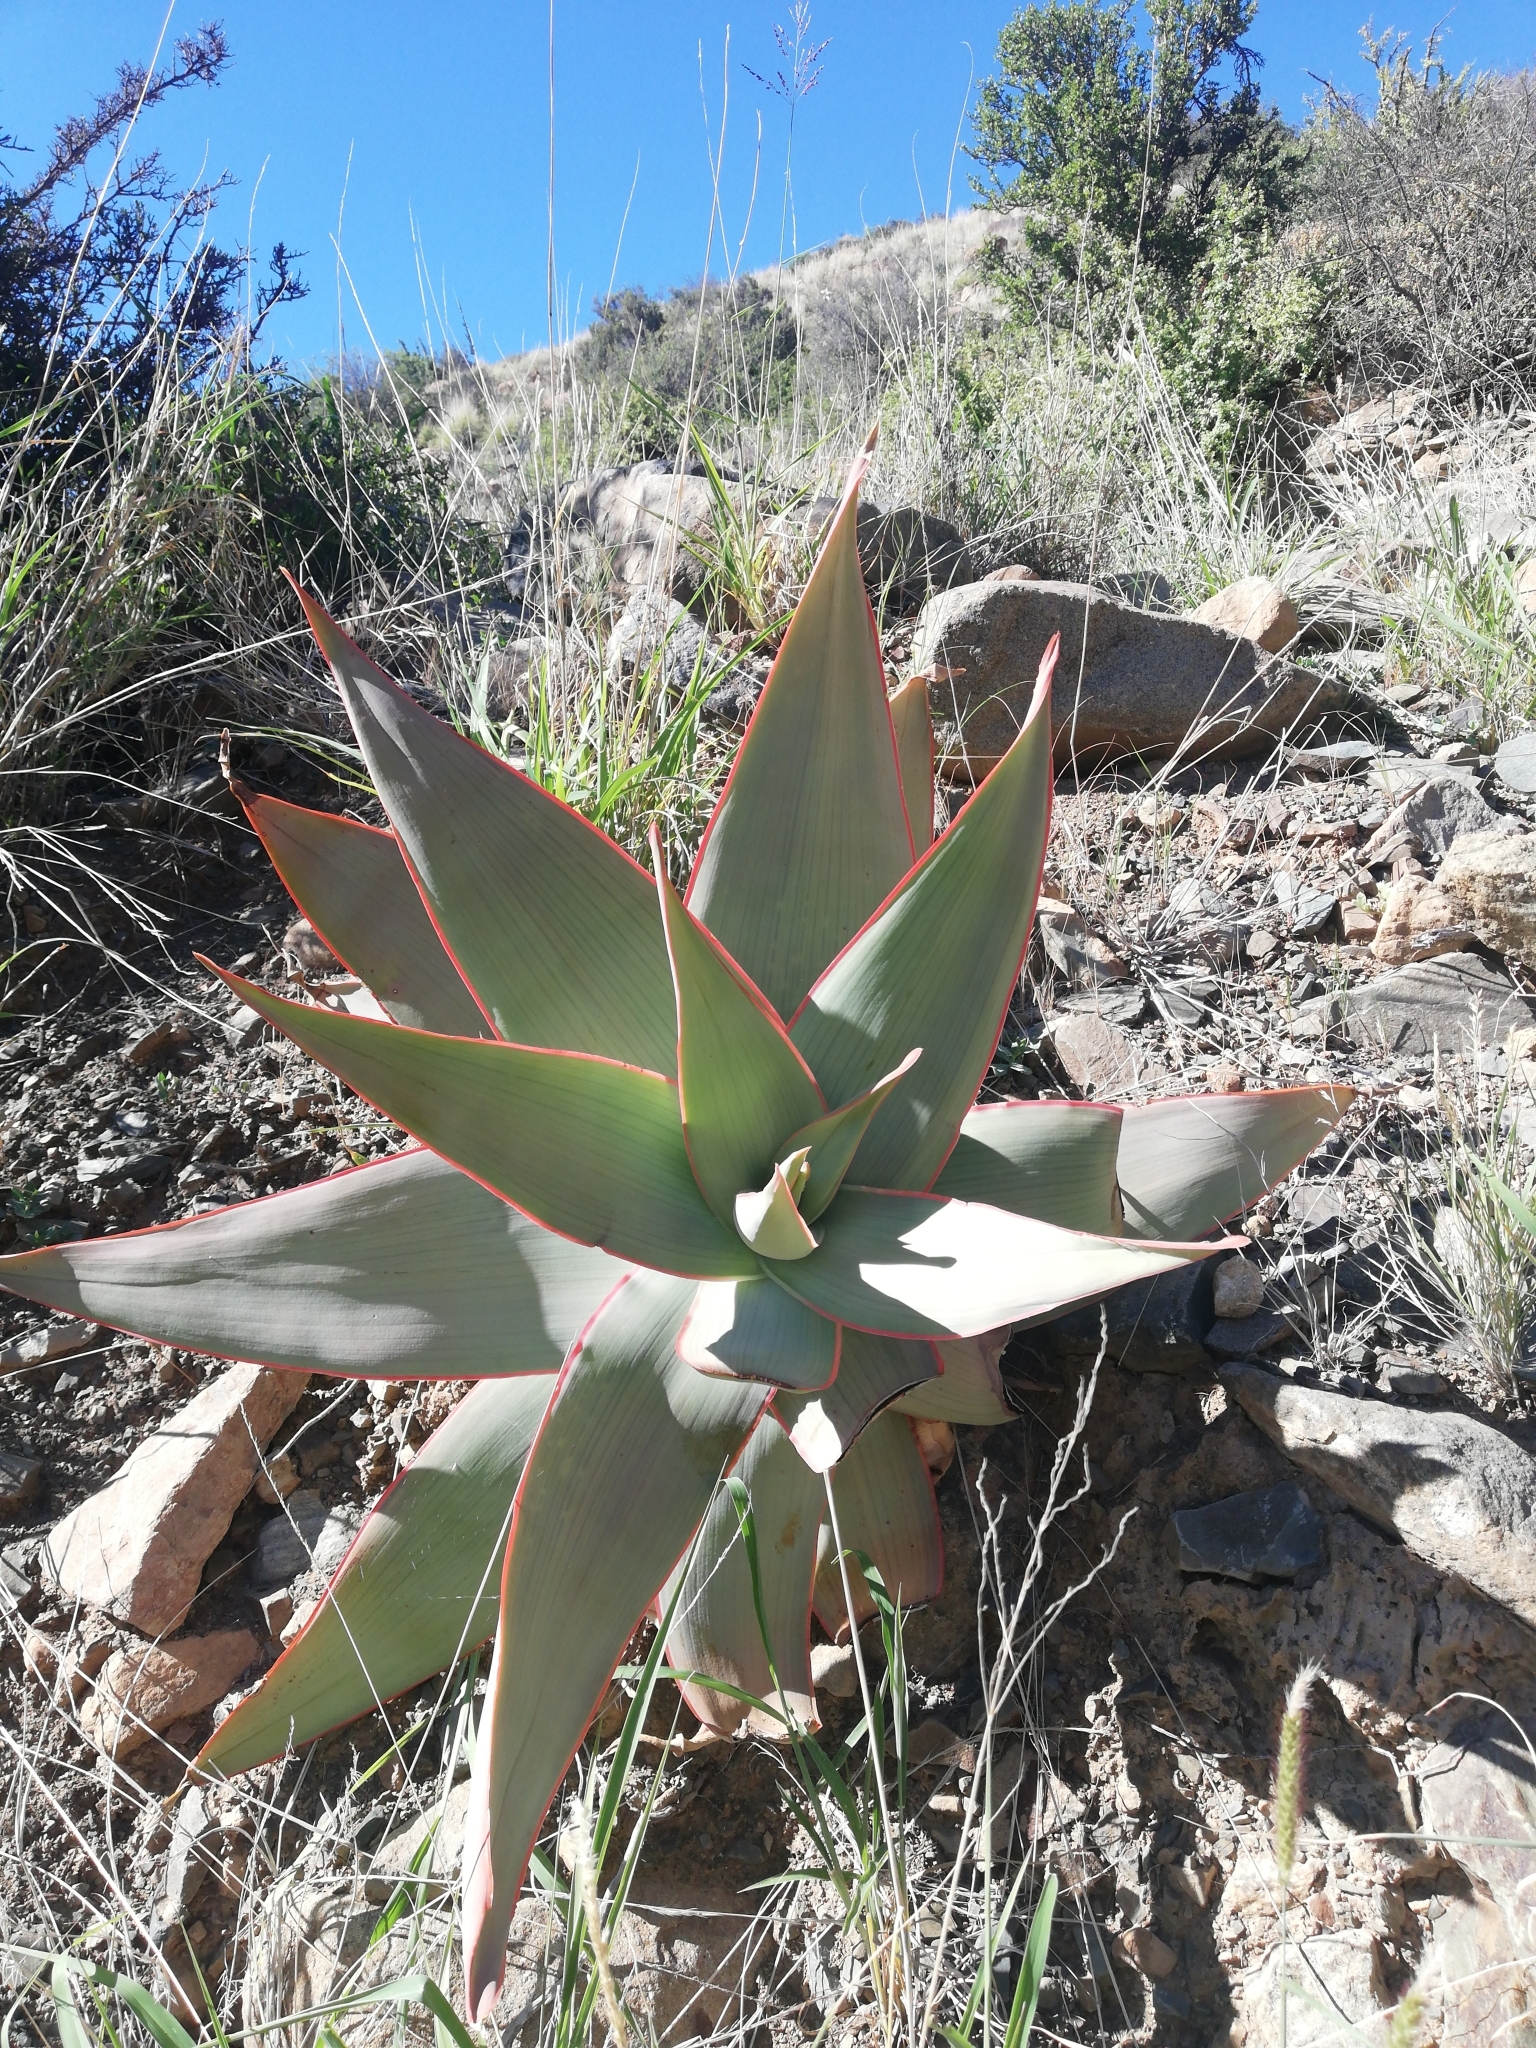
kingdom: Plantae
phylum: Tracheophyta
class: Liliopsida
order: Asparagales
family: Asphodelaceae
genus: Aloe
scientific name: Aloe striata
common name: Coral aloe
